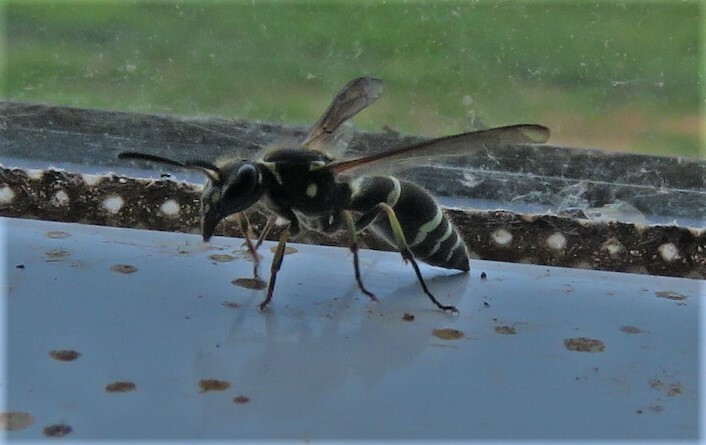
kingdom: Animalia
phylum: Arthropoda
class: Insecta
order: Hymenoptera
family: Vespidae
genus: Ancistrocerus
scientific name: Ancistrocerus catskill
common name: Vespid wasp
